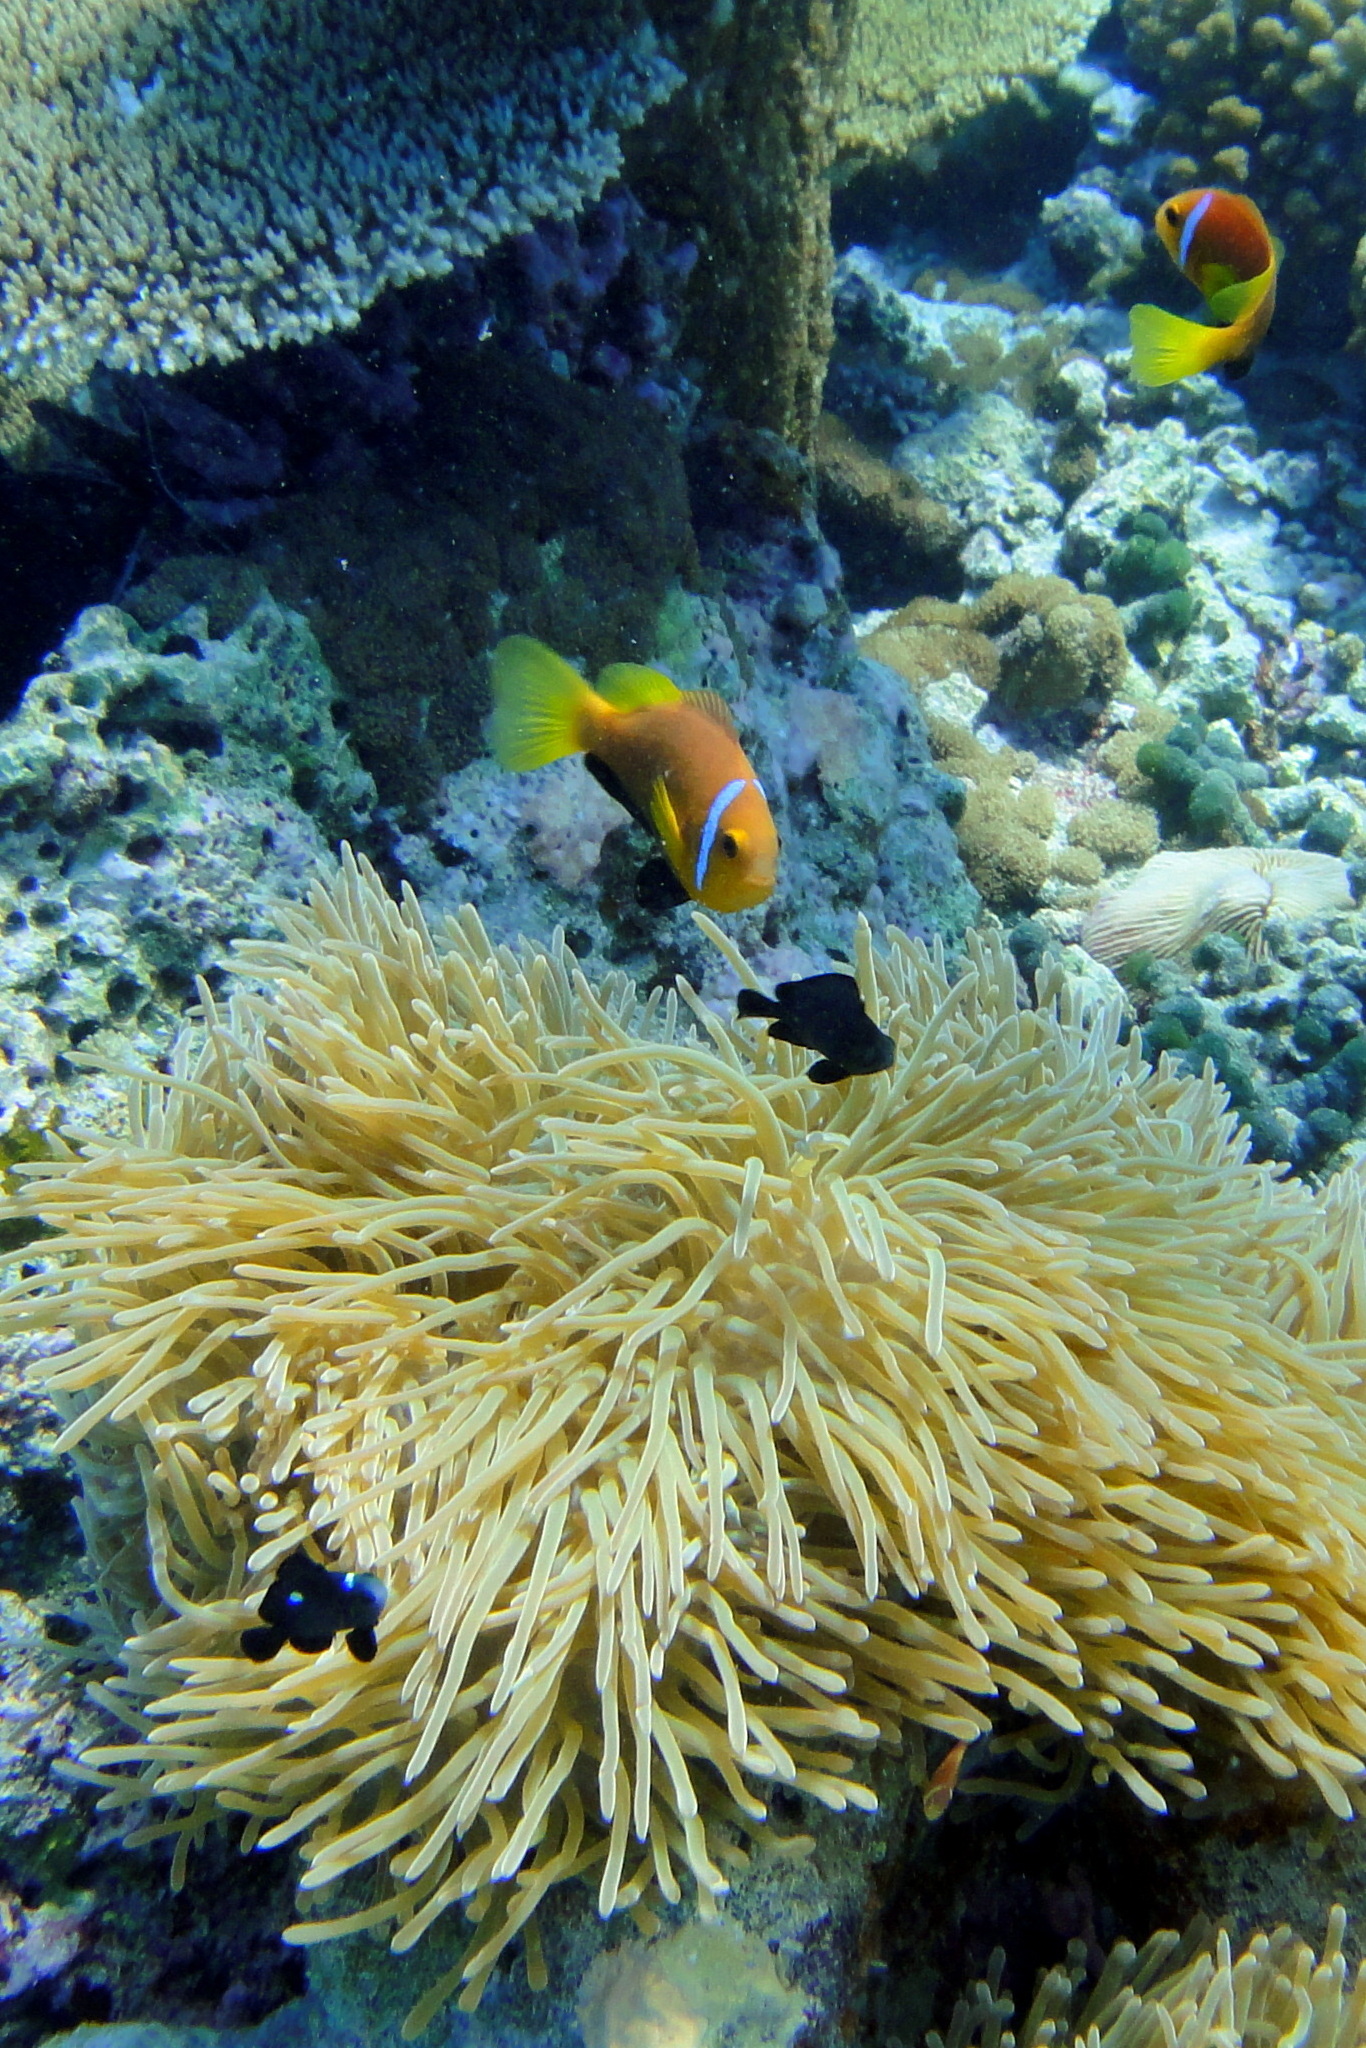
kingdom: Animalia
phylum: Chordata
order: Perciformes
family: Pomacentridae
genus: Amphiprion
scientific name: Amphiprion nigripes
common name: Maldive anemonefish
